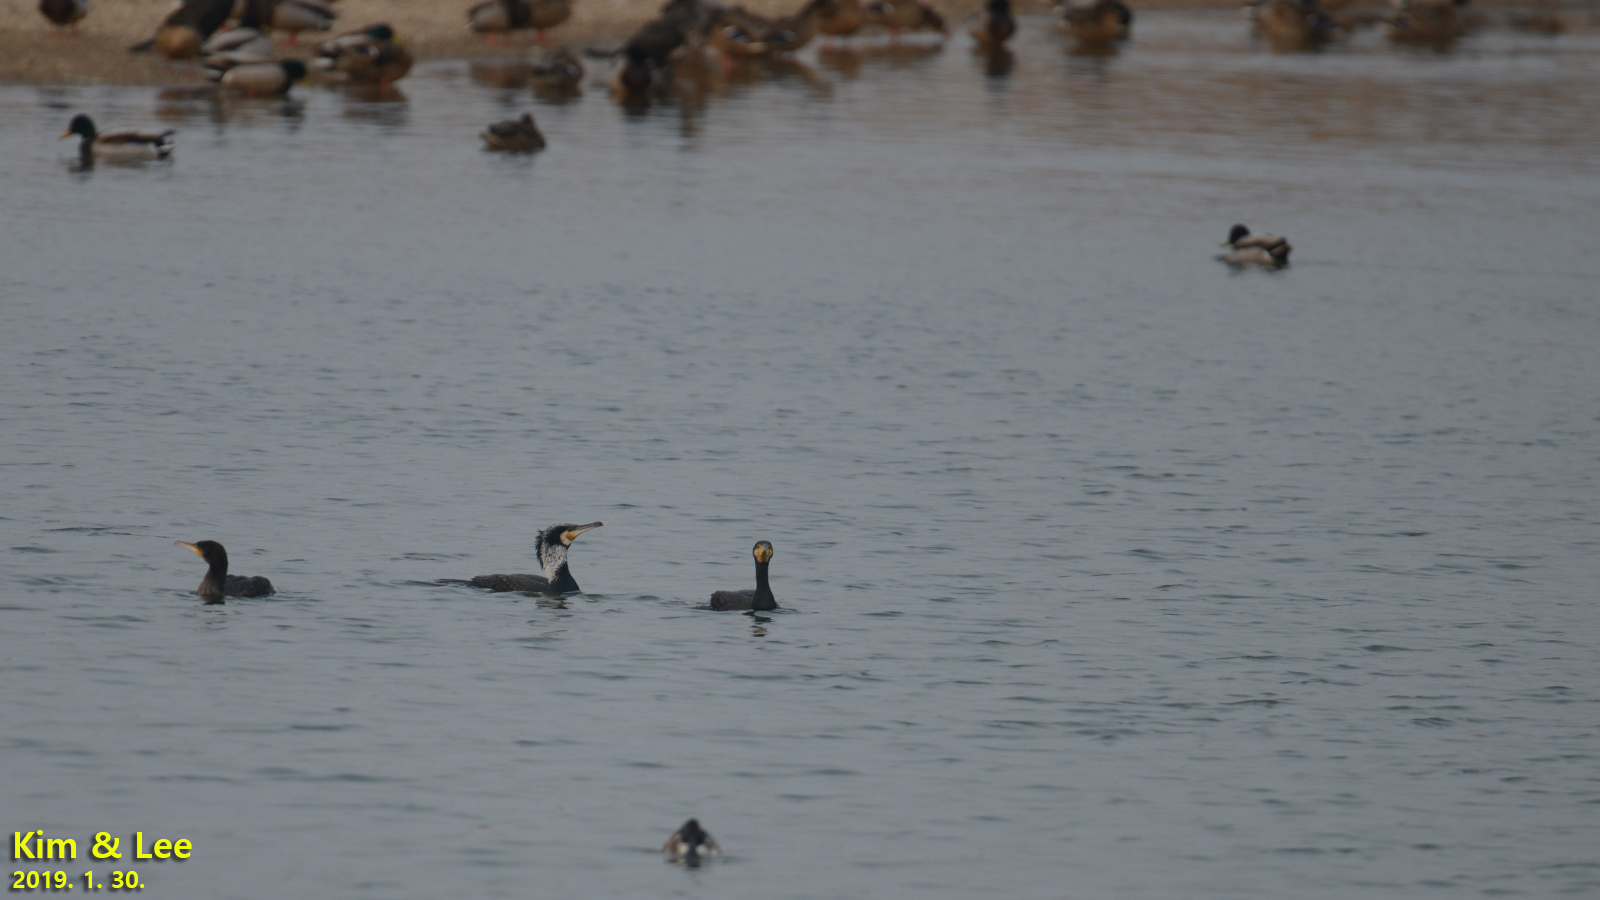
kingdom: Animalia
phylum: Chordata
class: Aves
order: Suliformes
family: Phalacrocoracidae
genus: Phalacrocorax
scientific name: Phalacrocorax carbo
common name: Great cormorant
